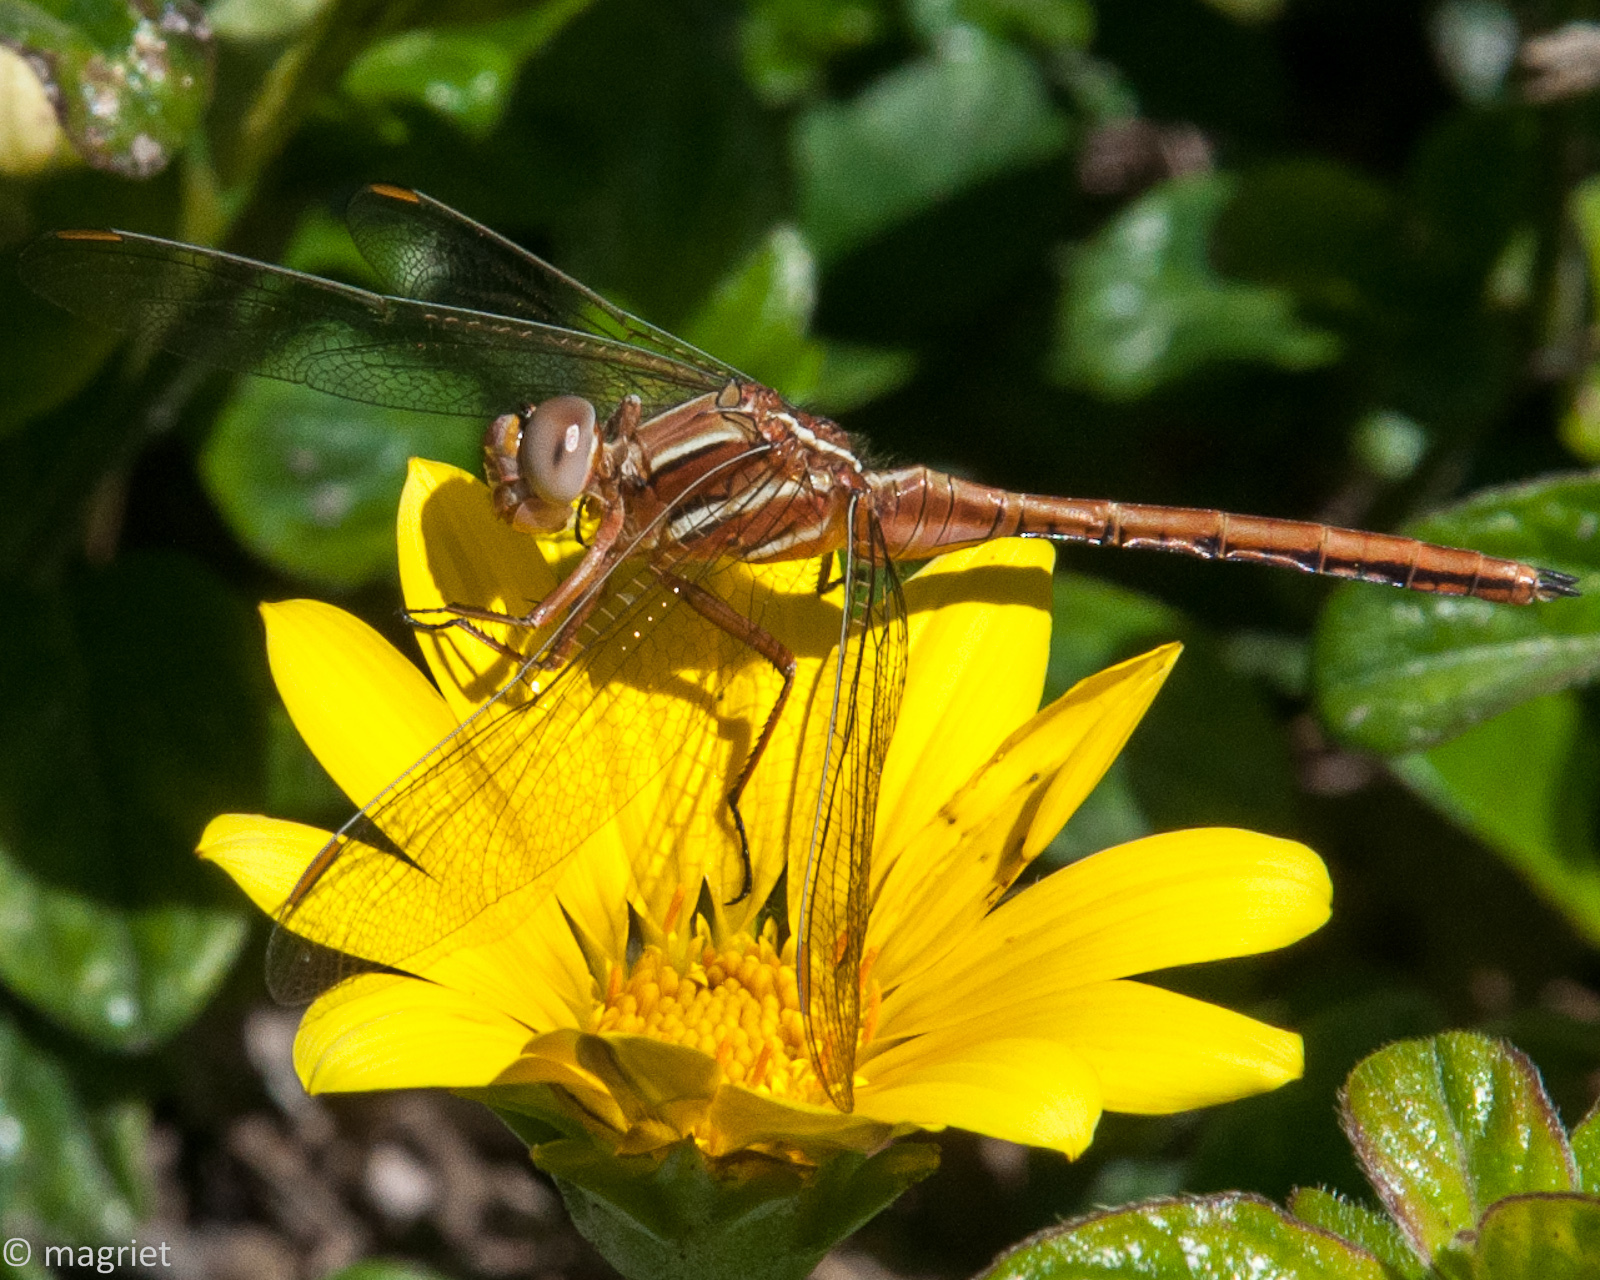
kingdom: Animalia
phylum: Arthropoda
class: Insecta
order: Odonata
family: Libellulidae
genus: Orthetrum
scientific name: Orthetrum caffrum
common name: Two-striped skimmer
